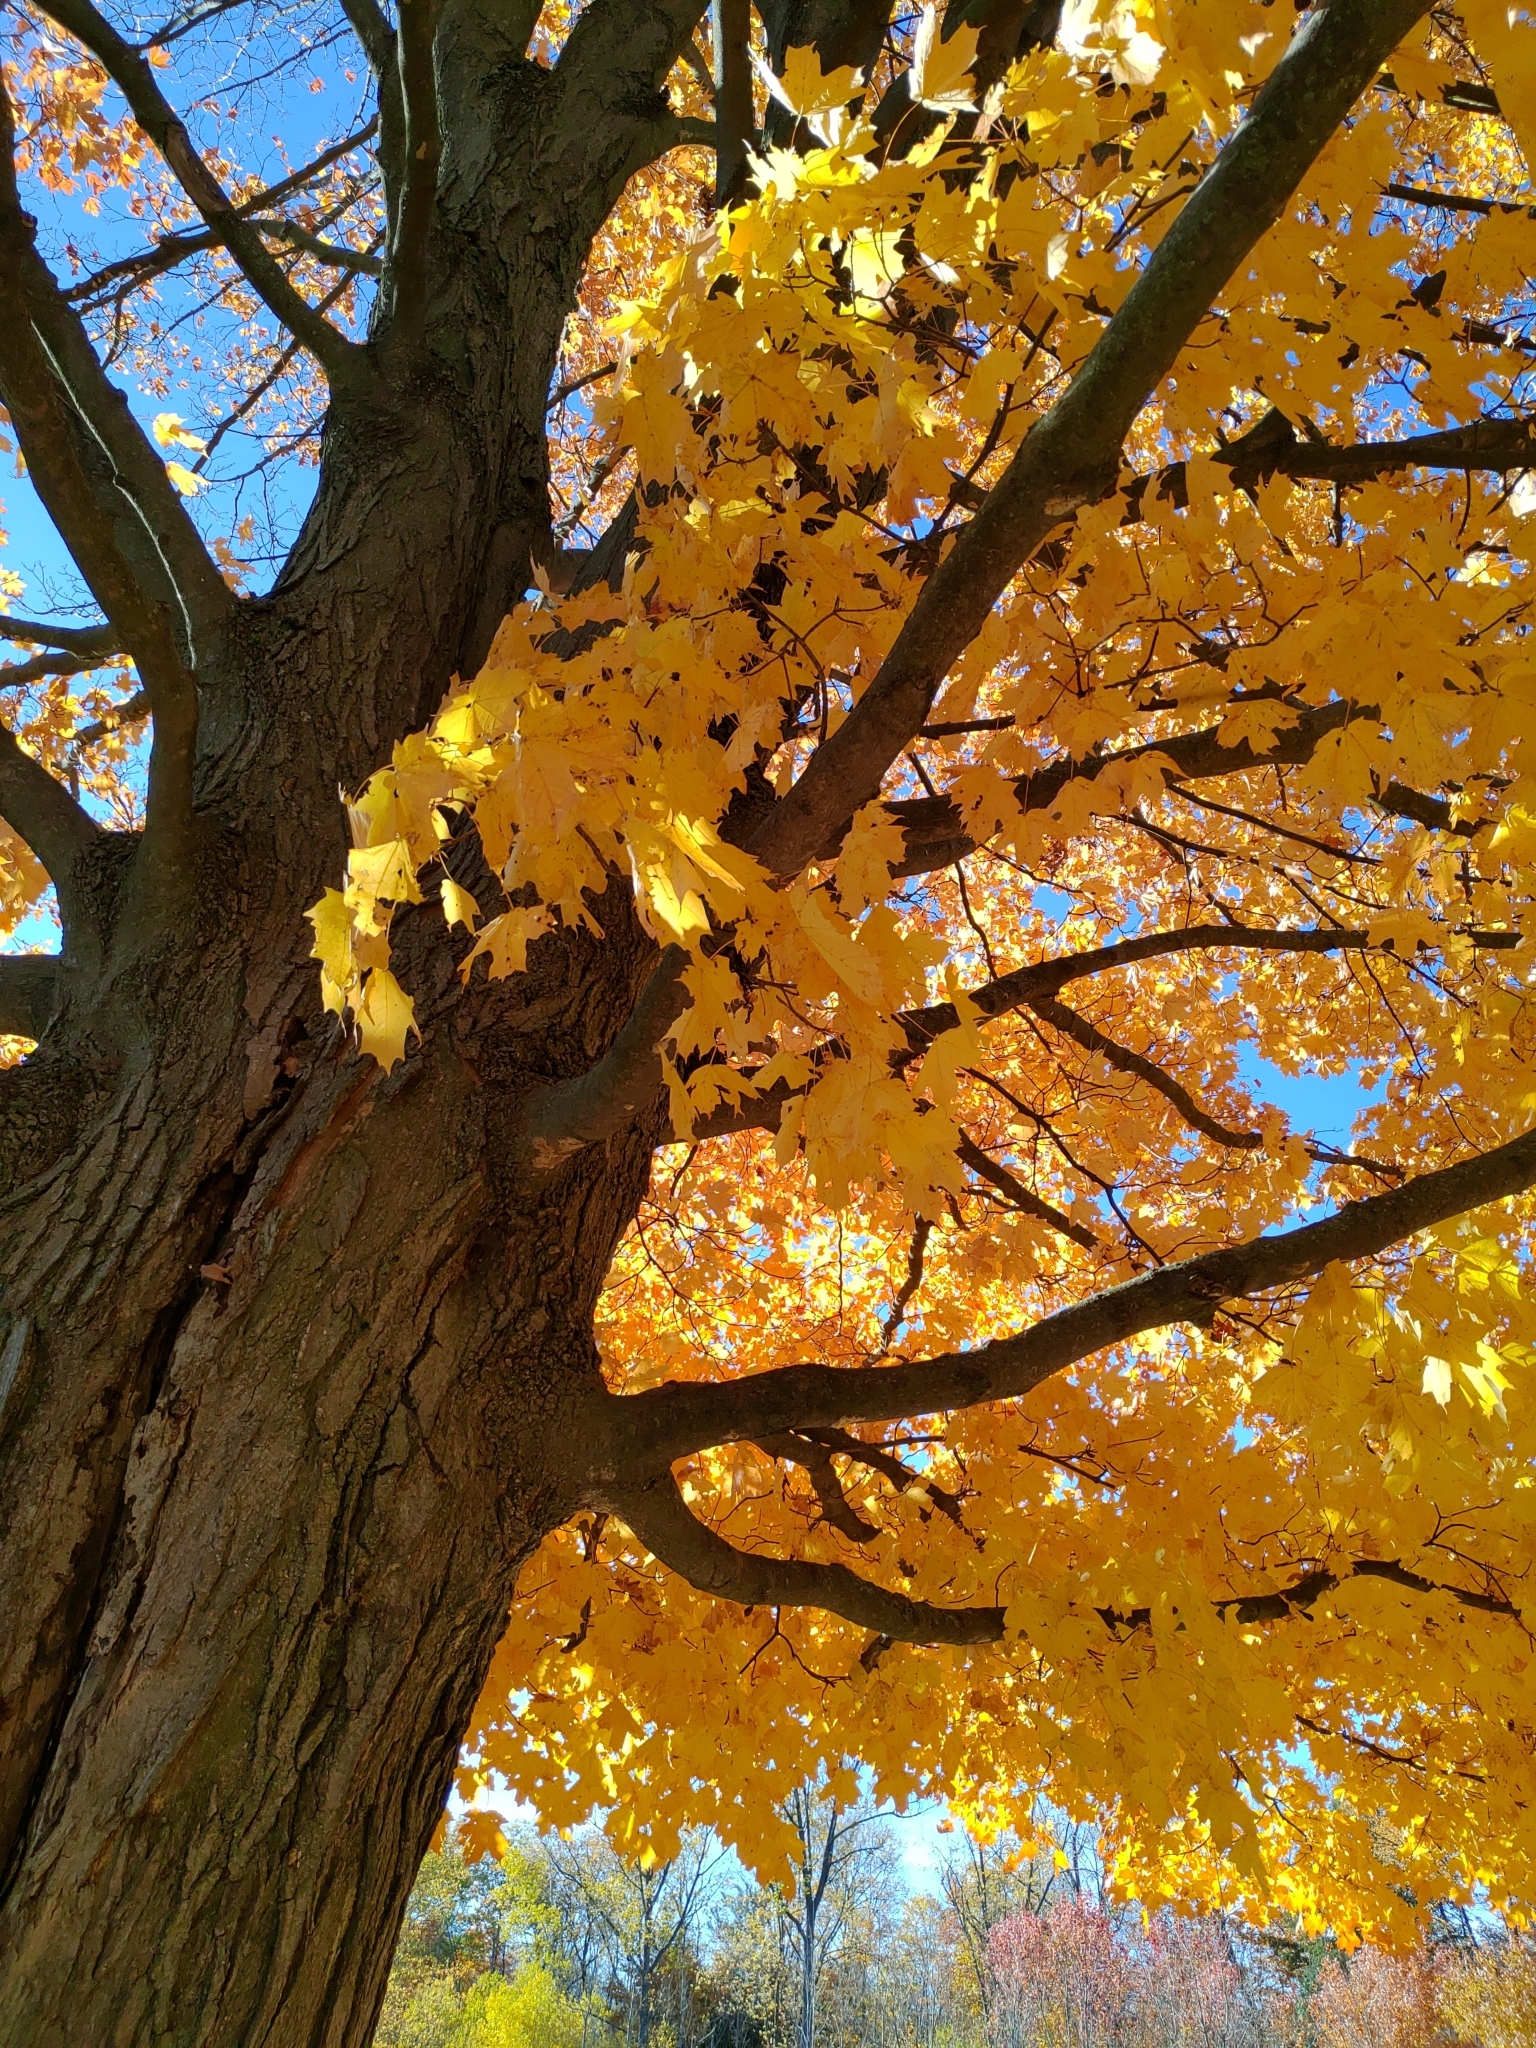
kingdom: Plantae
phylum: Tracheophyta
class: Magnoliopsida
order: Sapindales
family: Sapindaceae
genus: Acer
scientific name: Acer saccharum
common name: Sugar maple
